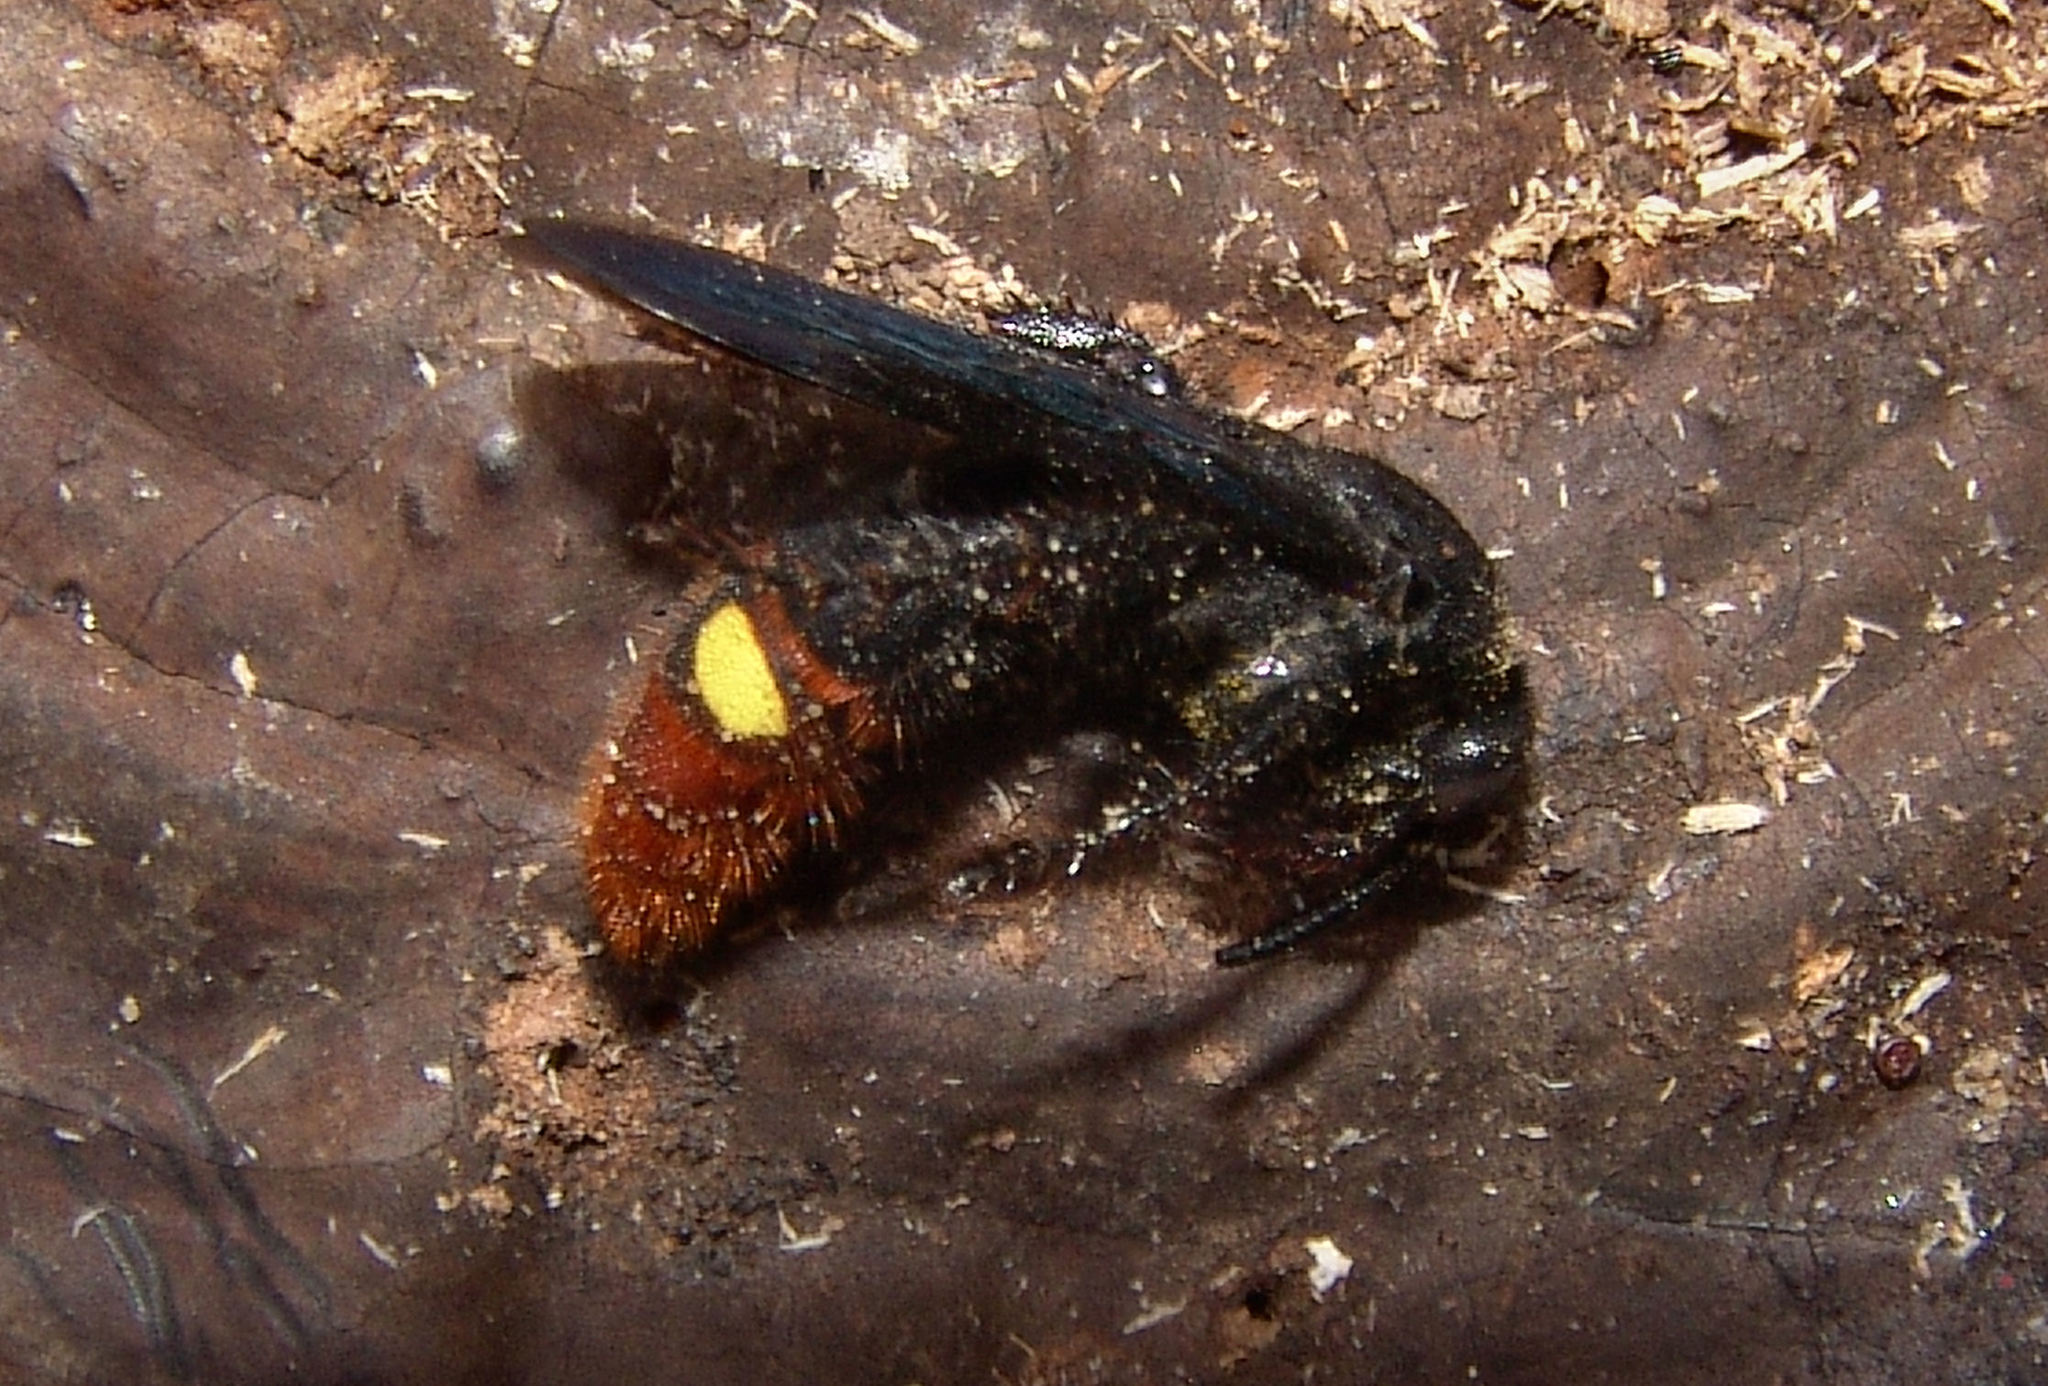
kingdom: Animalia
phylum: Arthropoda
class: Insecta
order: Hymenoptera
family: Scoliidae
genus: Scolia
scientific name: Scolia dubia
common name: Blue-winged scoliid wasp
